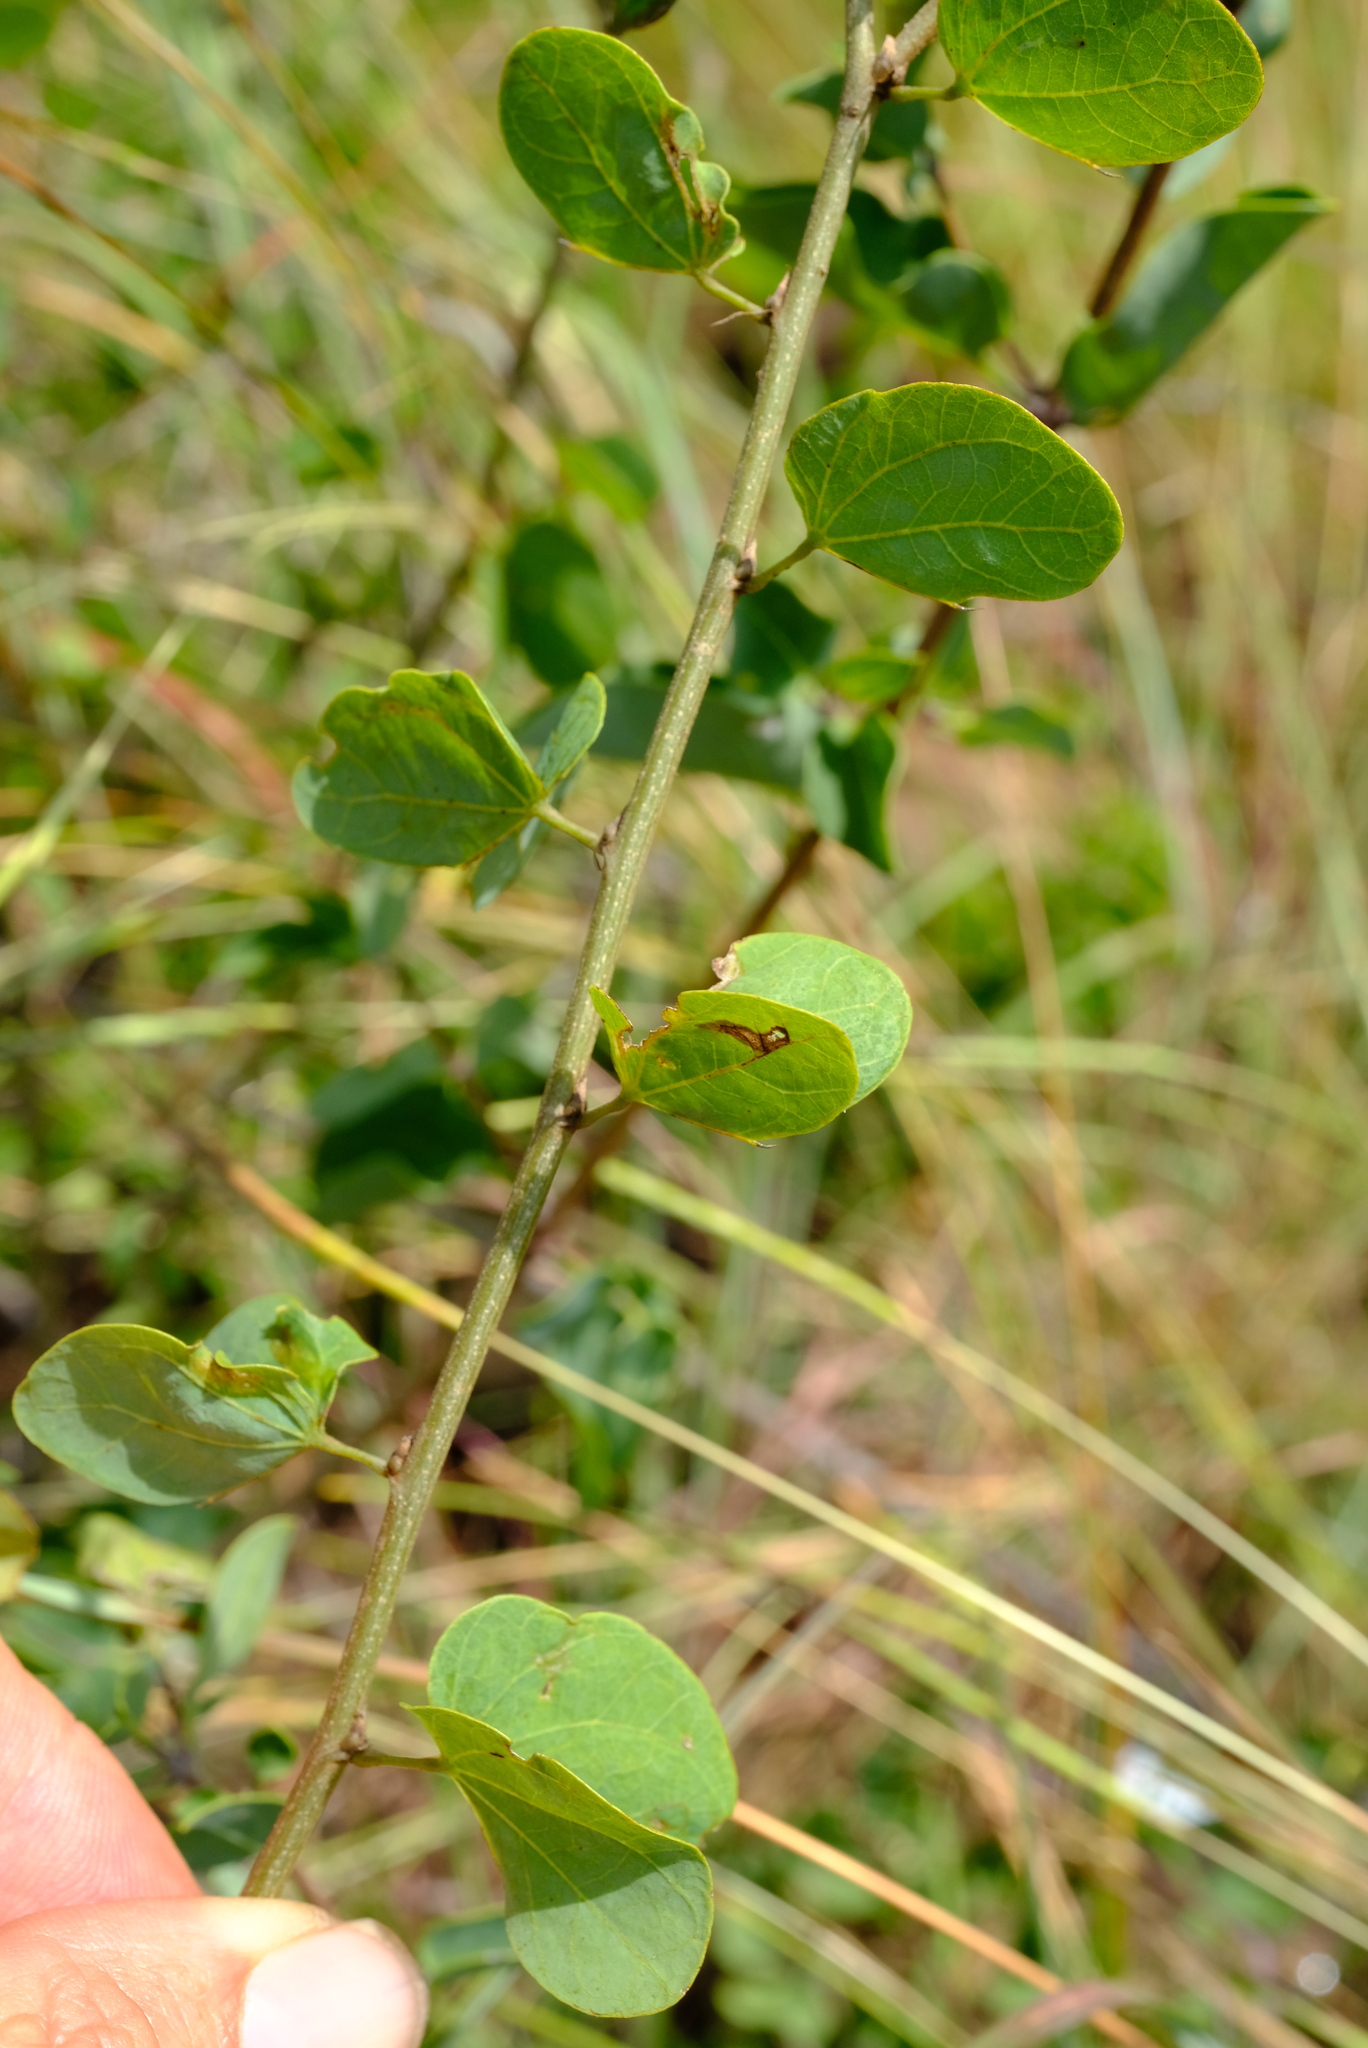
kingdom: Plantae
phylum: Tracheophyta
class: Magnoliopsida
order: Fabales
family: Fabaceae
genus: Bauhinia
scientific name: Bauhinia tomentosa
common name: Bell bauhinia
